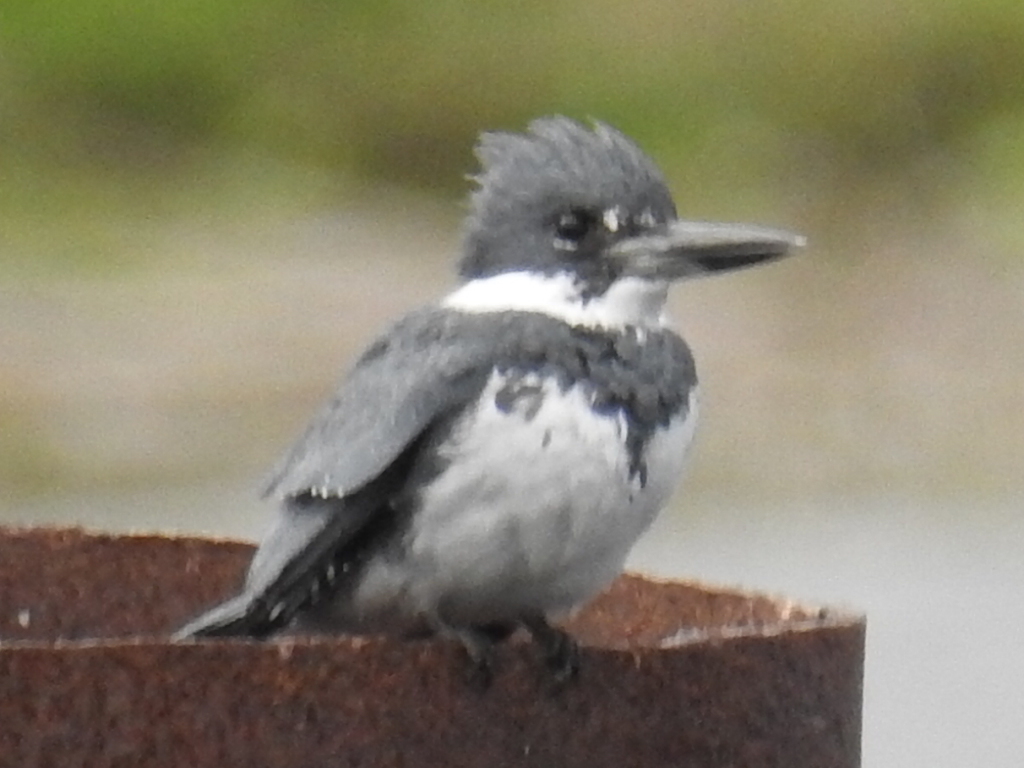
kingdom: Animalia
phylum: Chordata
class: Aves
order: Coraciiformes
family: Alcedinidae
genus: Megaceryle
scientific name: Megaceryle alcyon
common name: Belted kingfisher
